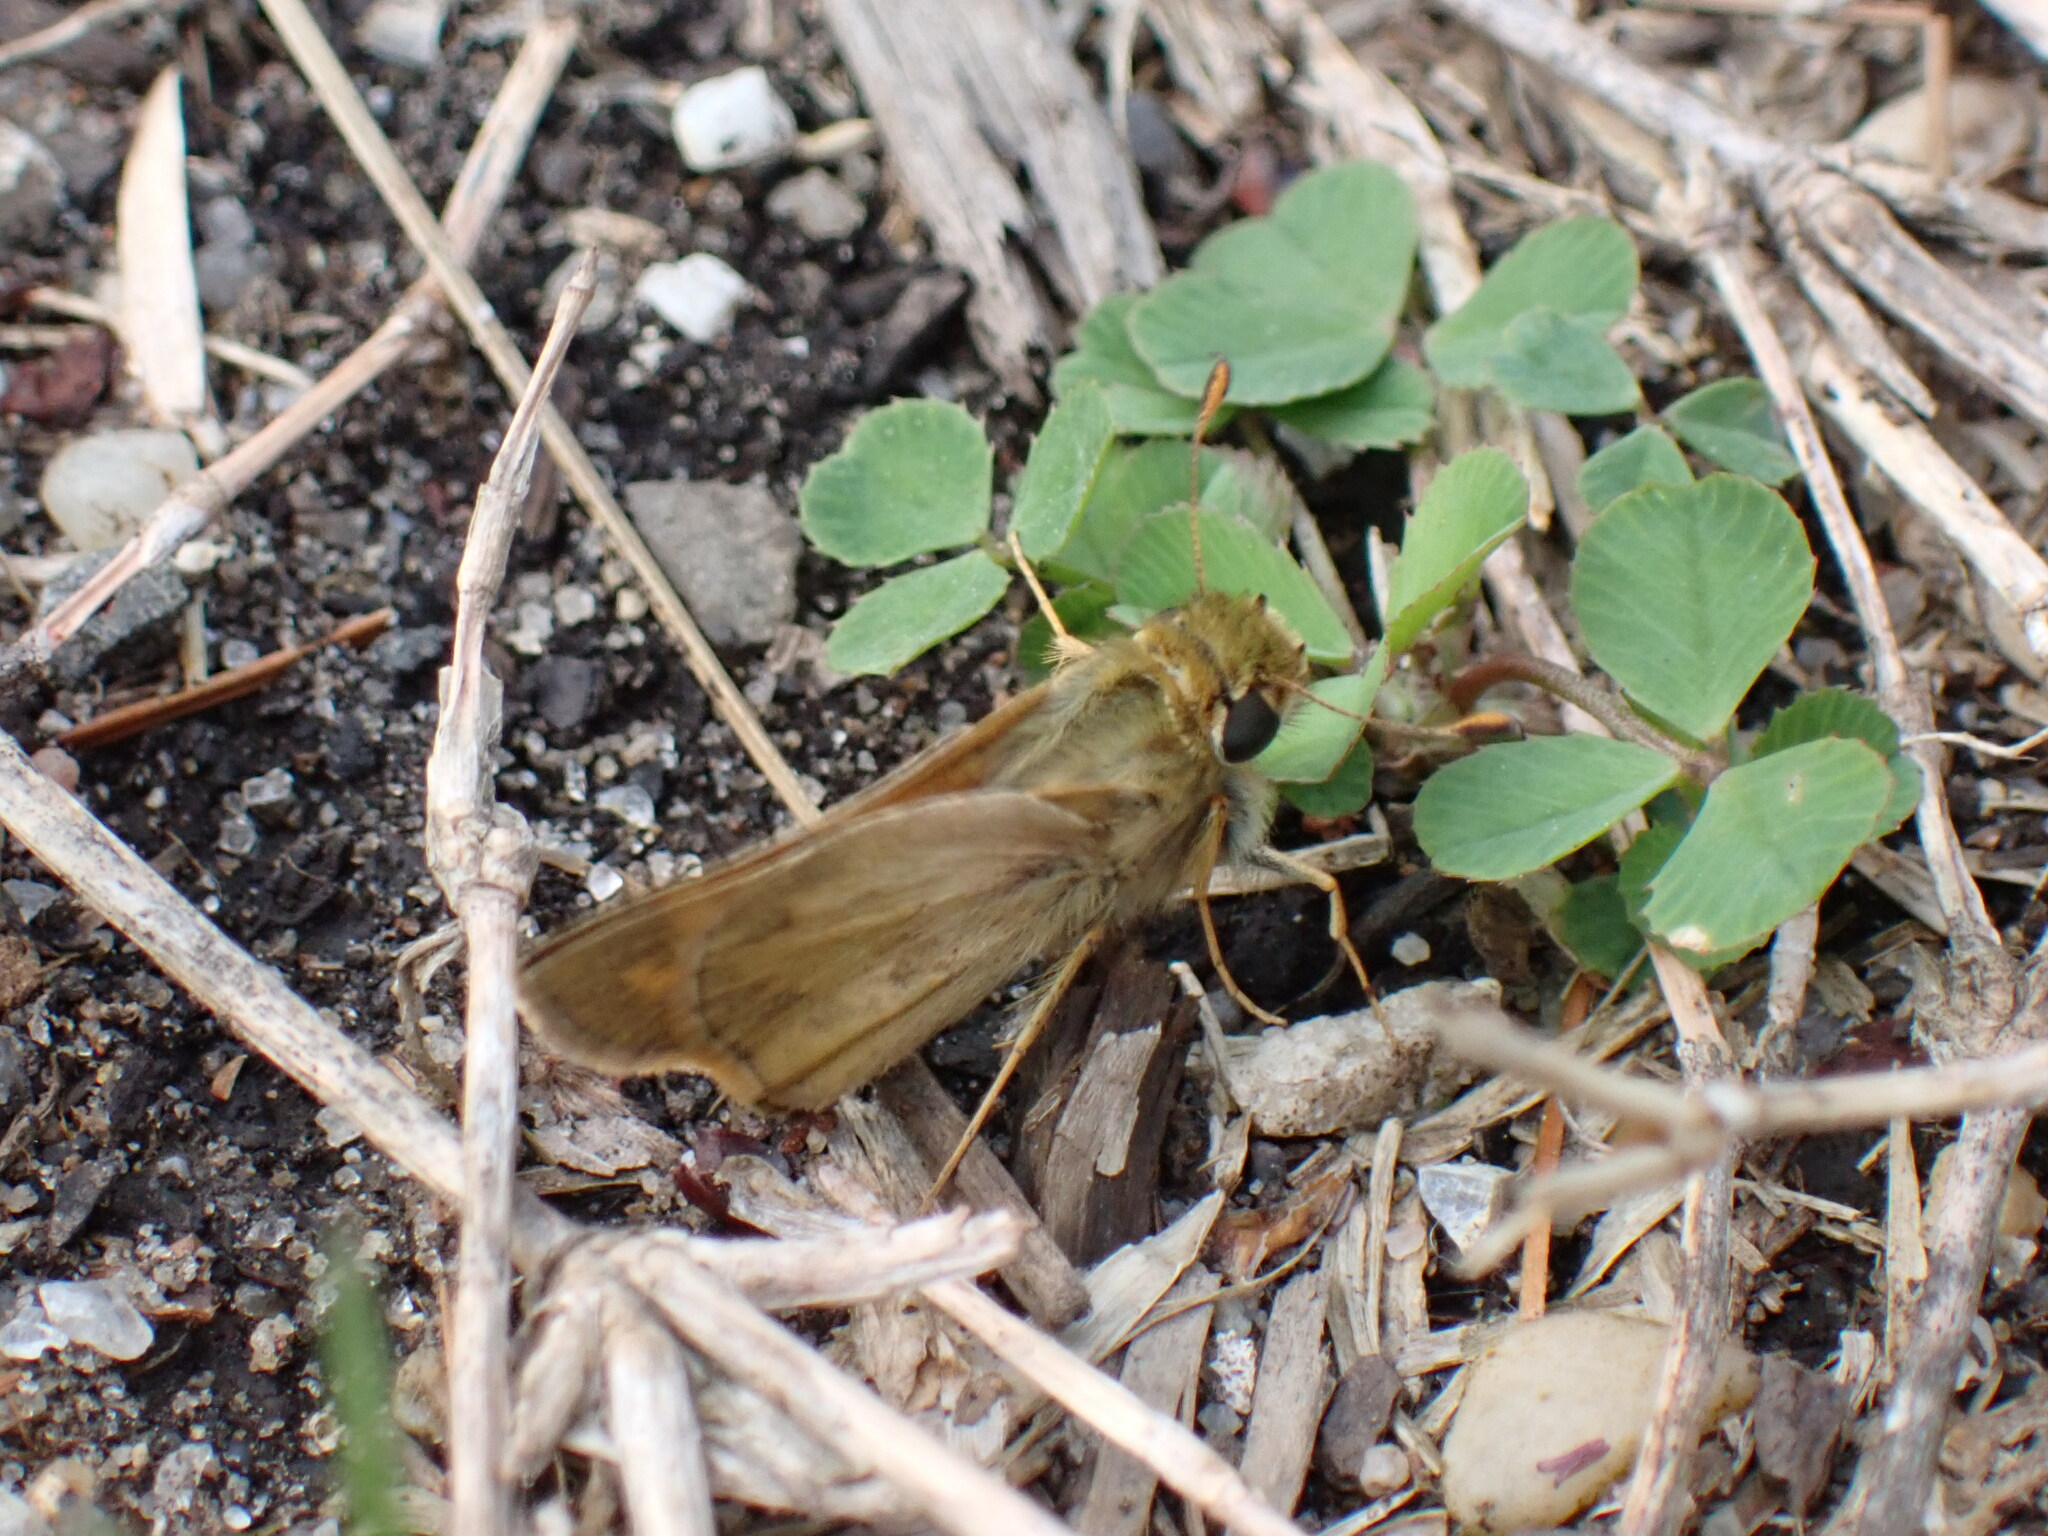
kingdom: Animalia
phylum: Arthropoda
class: Insecta
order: Lepidoptera
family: Hesperiidae
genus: Atalopedes
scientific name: Atalopedes
